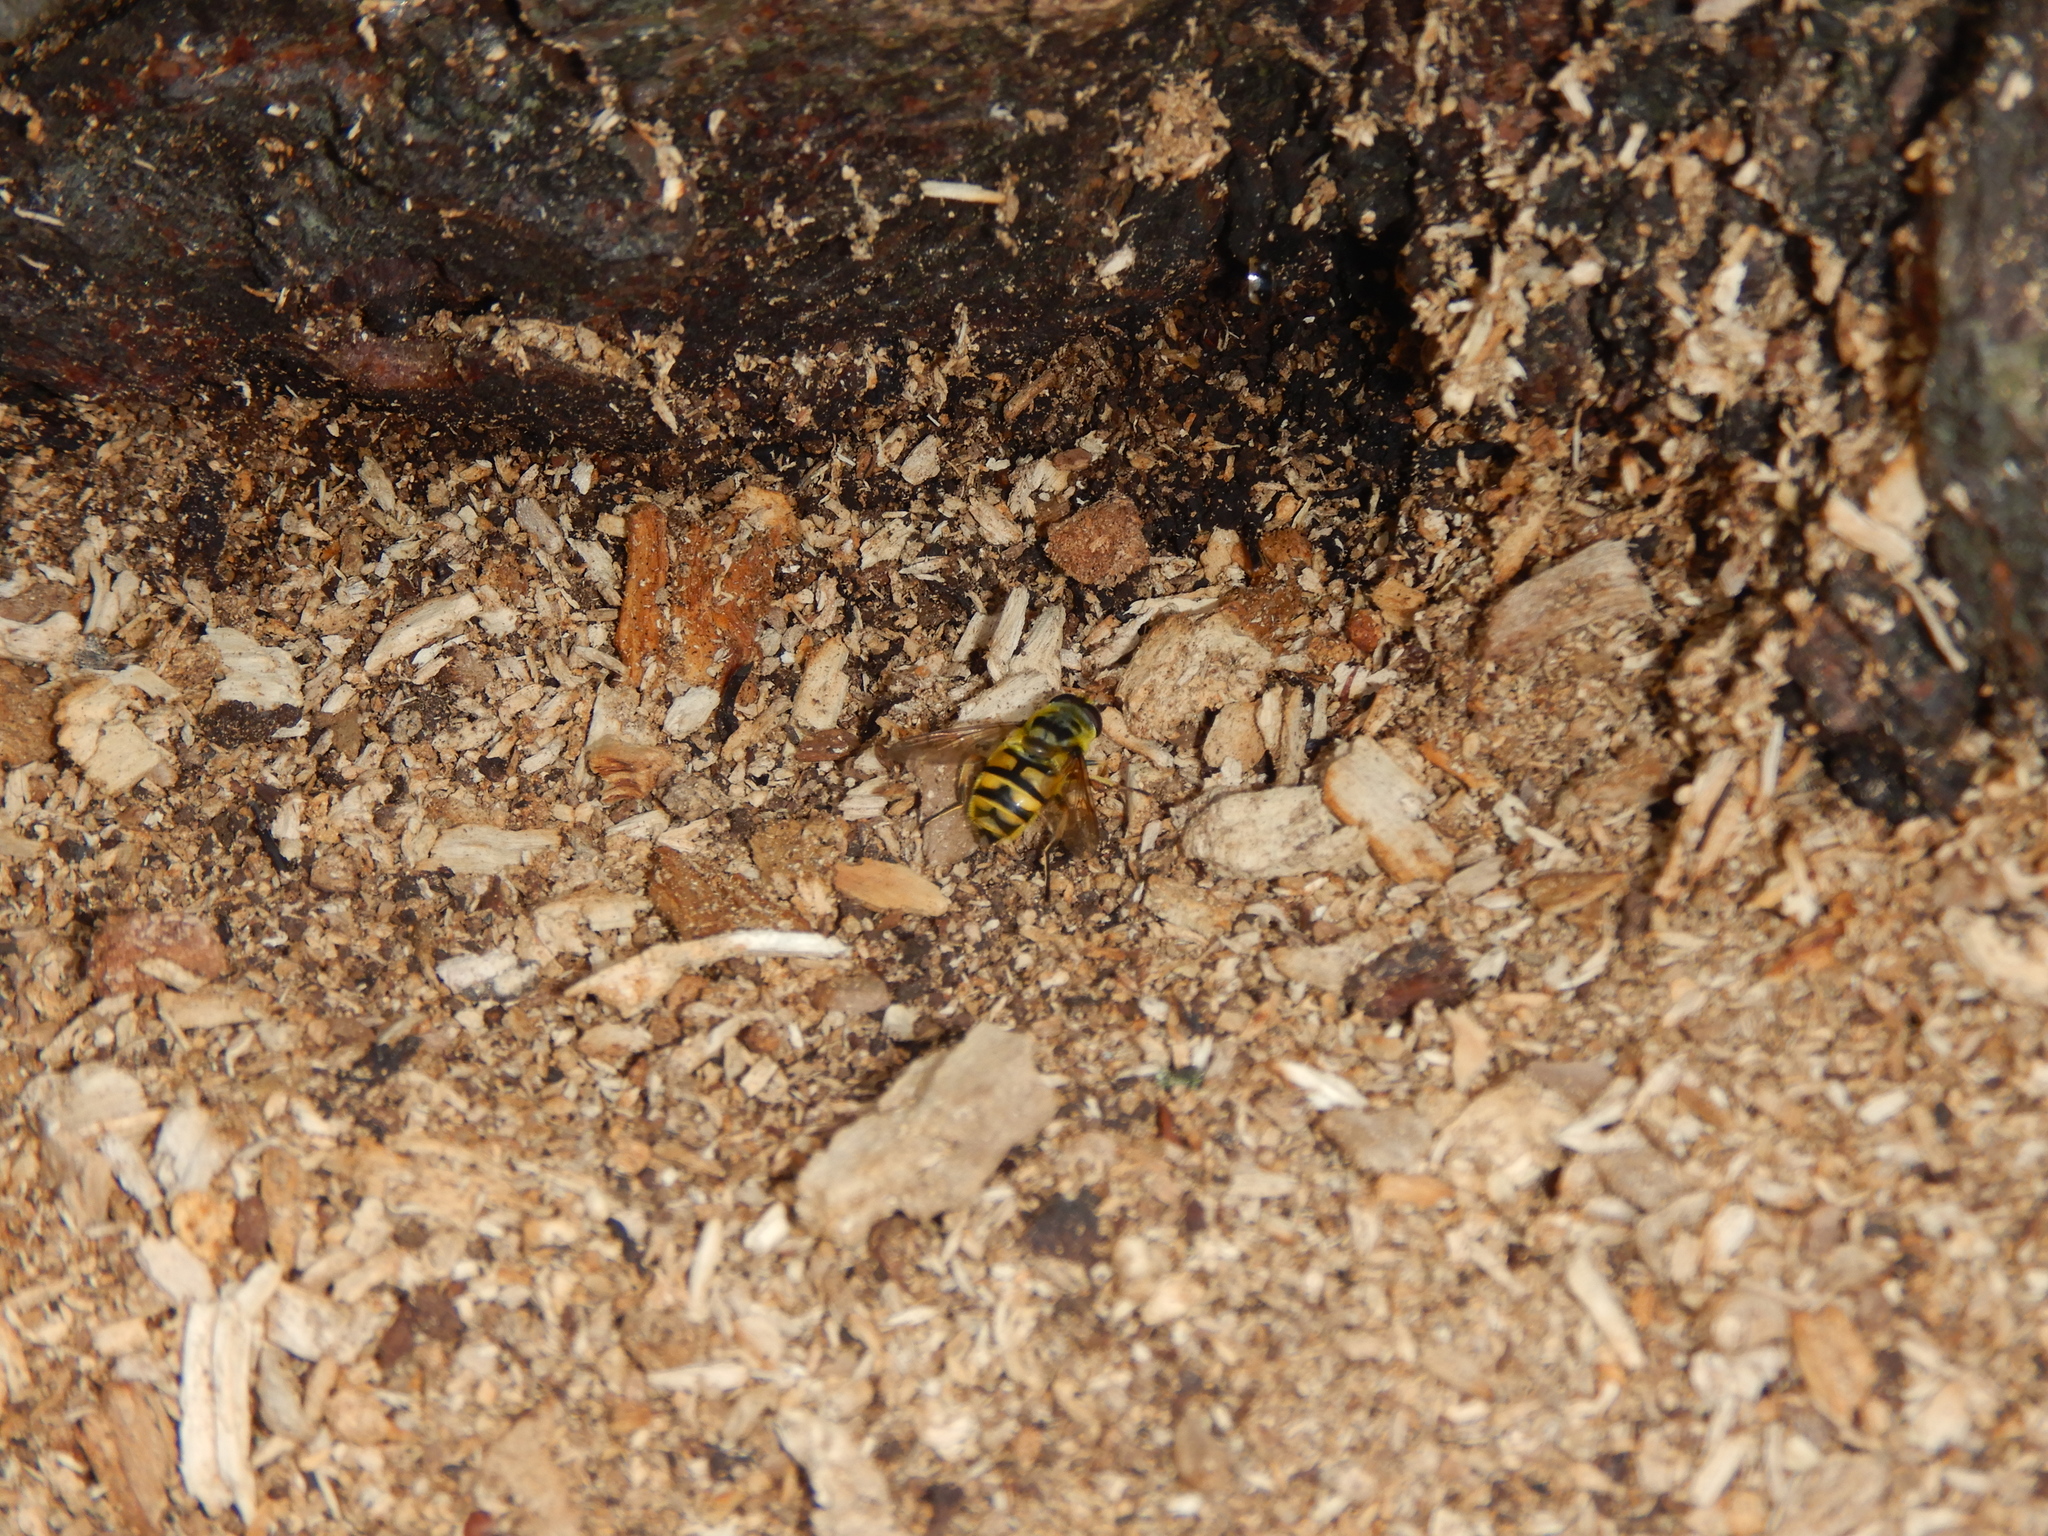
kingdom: Animalia
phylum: Arthropoda
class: Insecta
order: Diptera
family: Syrphidae
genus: Myathropa
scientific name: Myathropa florea
